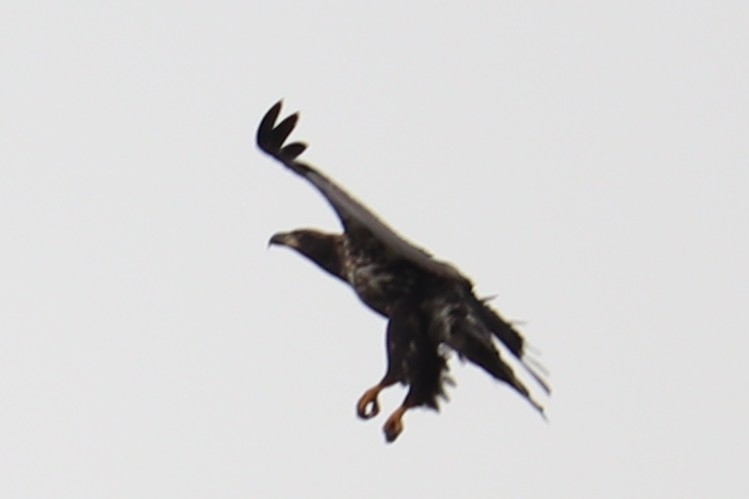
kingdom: Animalia
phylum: Chordata
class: Aves
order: Accipitriformes
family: Accipitridae
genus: Haliaeetus
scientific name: Haliaeetus leucocephalus
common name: Bald eagle
